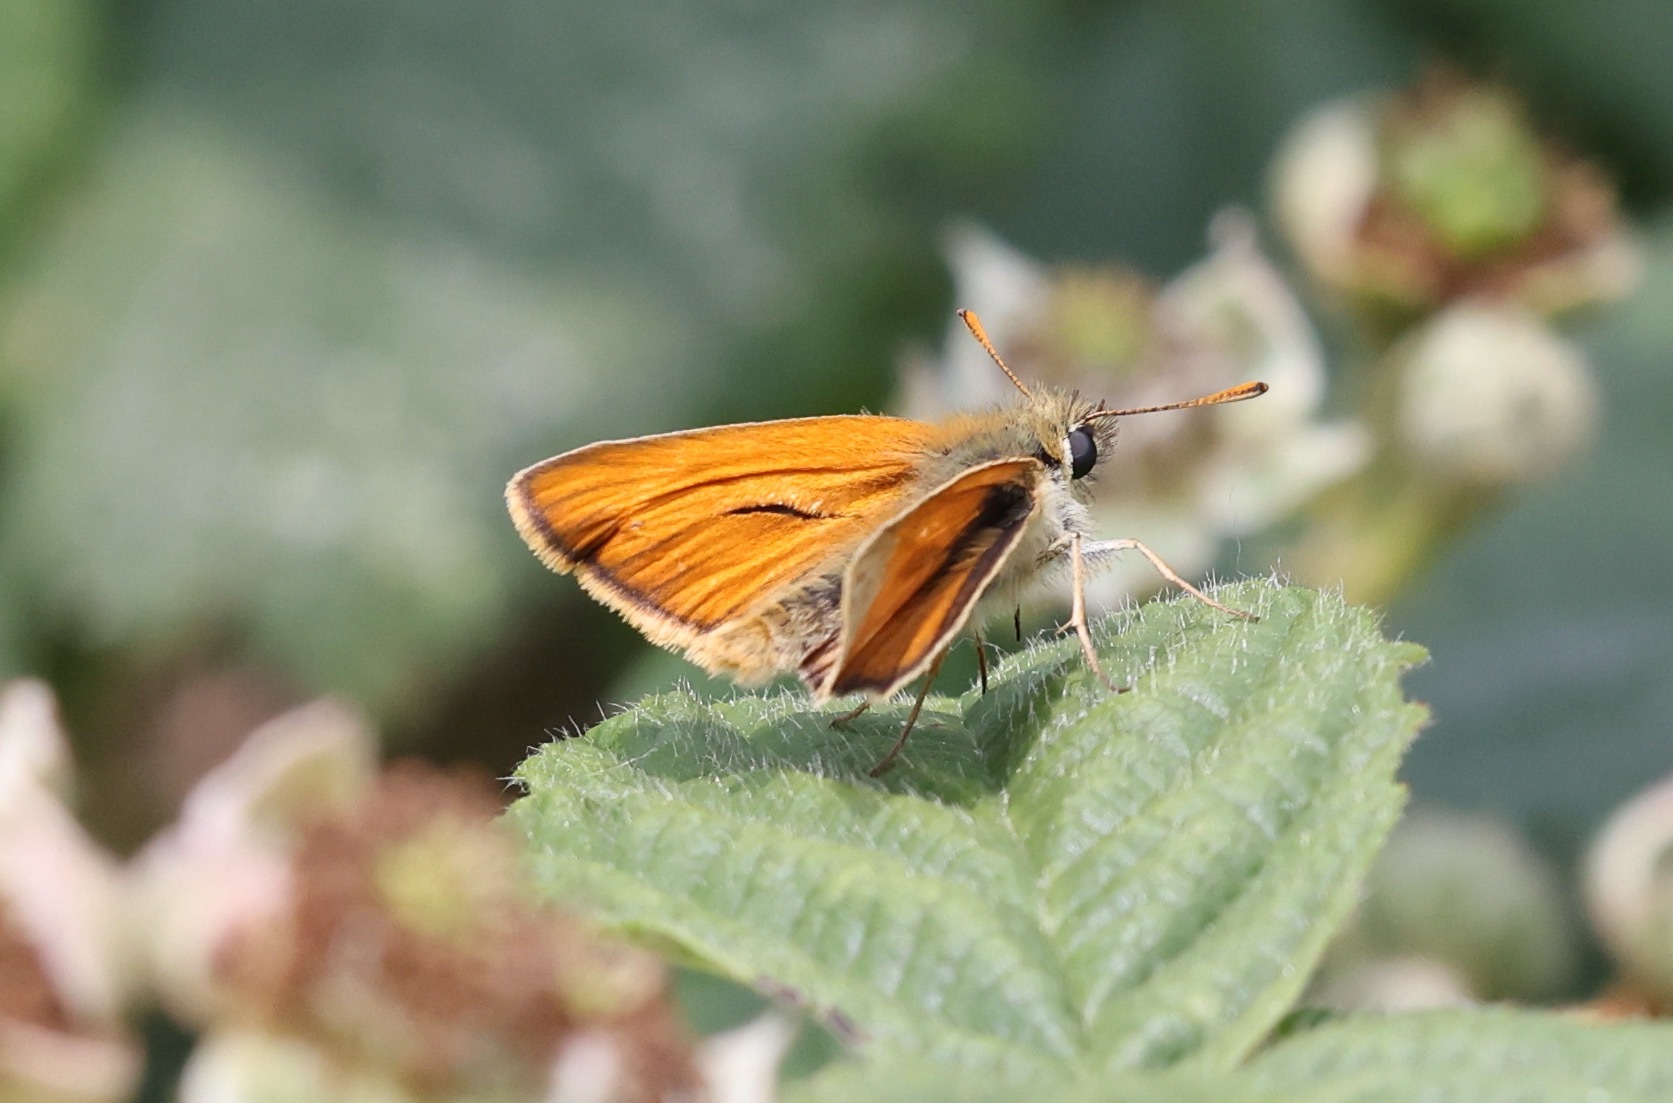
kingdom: Animalia
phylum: Arthropoda
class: Insecta
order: Lepidoptera
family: Hesperiidae
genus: Thymelicus
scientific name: Thymelicus sylvestris
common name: Small skipper
